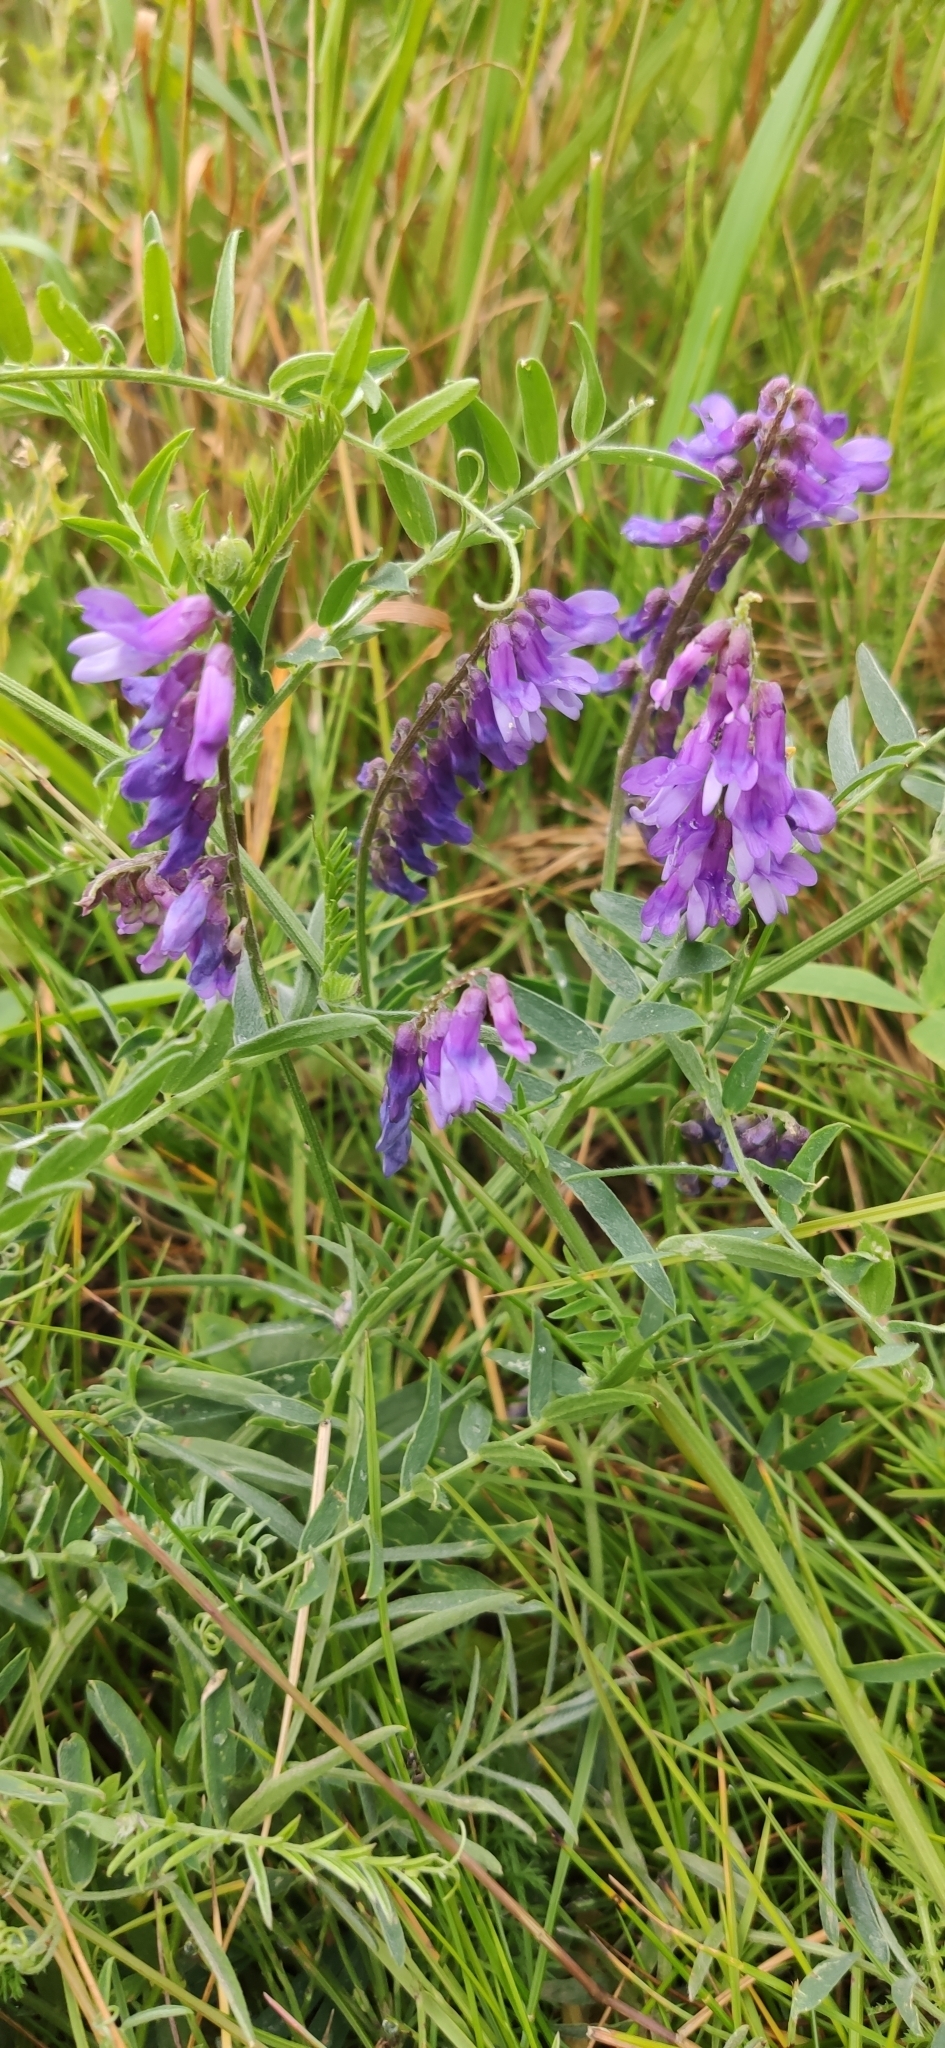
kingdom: Plantae
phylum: Tracheophyta
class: Magnoliopsida
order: Fabales
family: Fabaceae
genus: Vicia
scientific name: Vicia cracca
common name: Bird vetch
